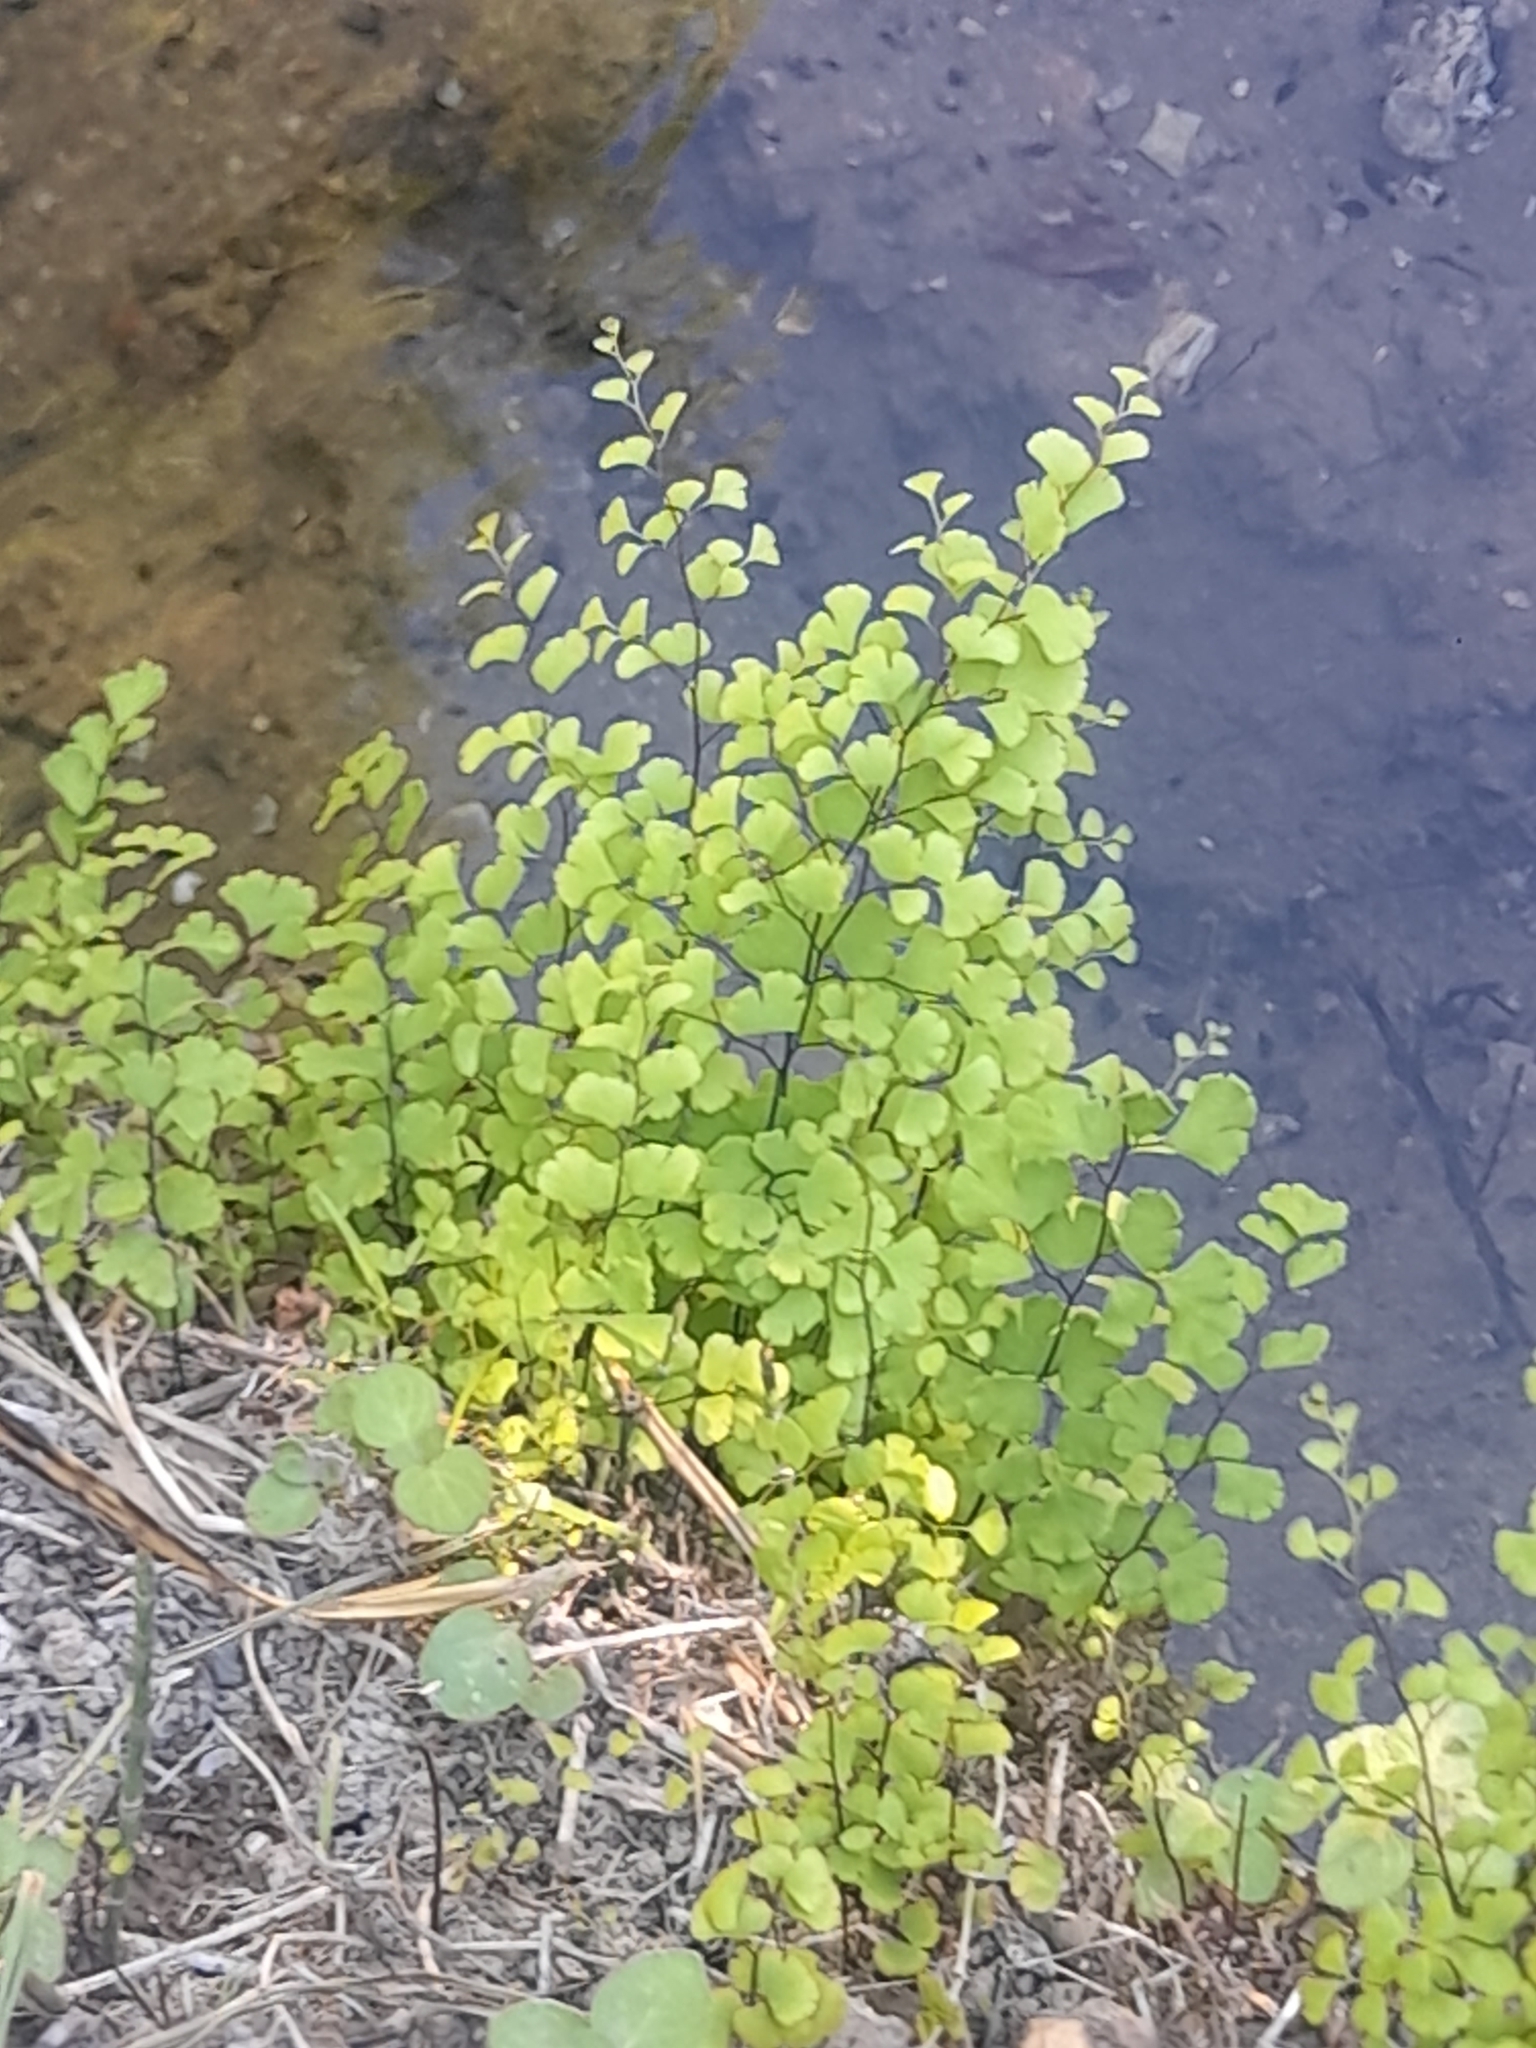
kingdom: Plantae
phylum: Tracheophyta
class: Polypodiopsida
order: Polypodiales
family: Pteridaceae
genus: Adiantum
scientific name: Adiantum capillus-veneris
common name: Maidenhair fern
